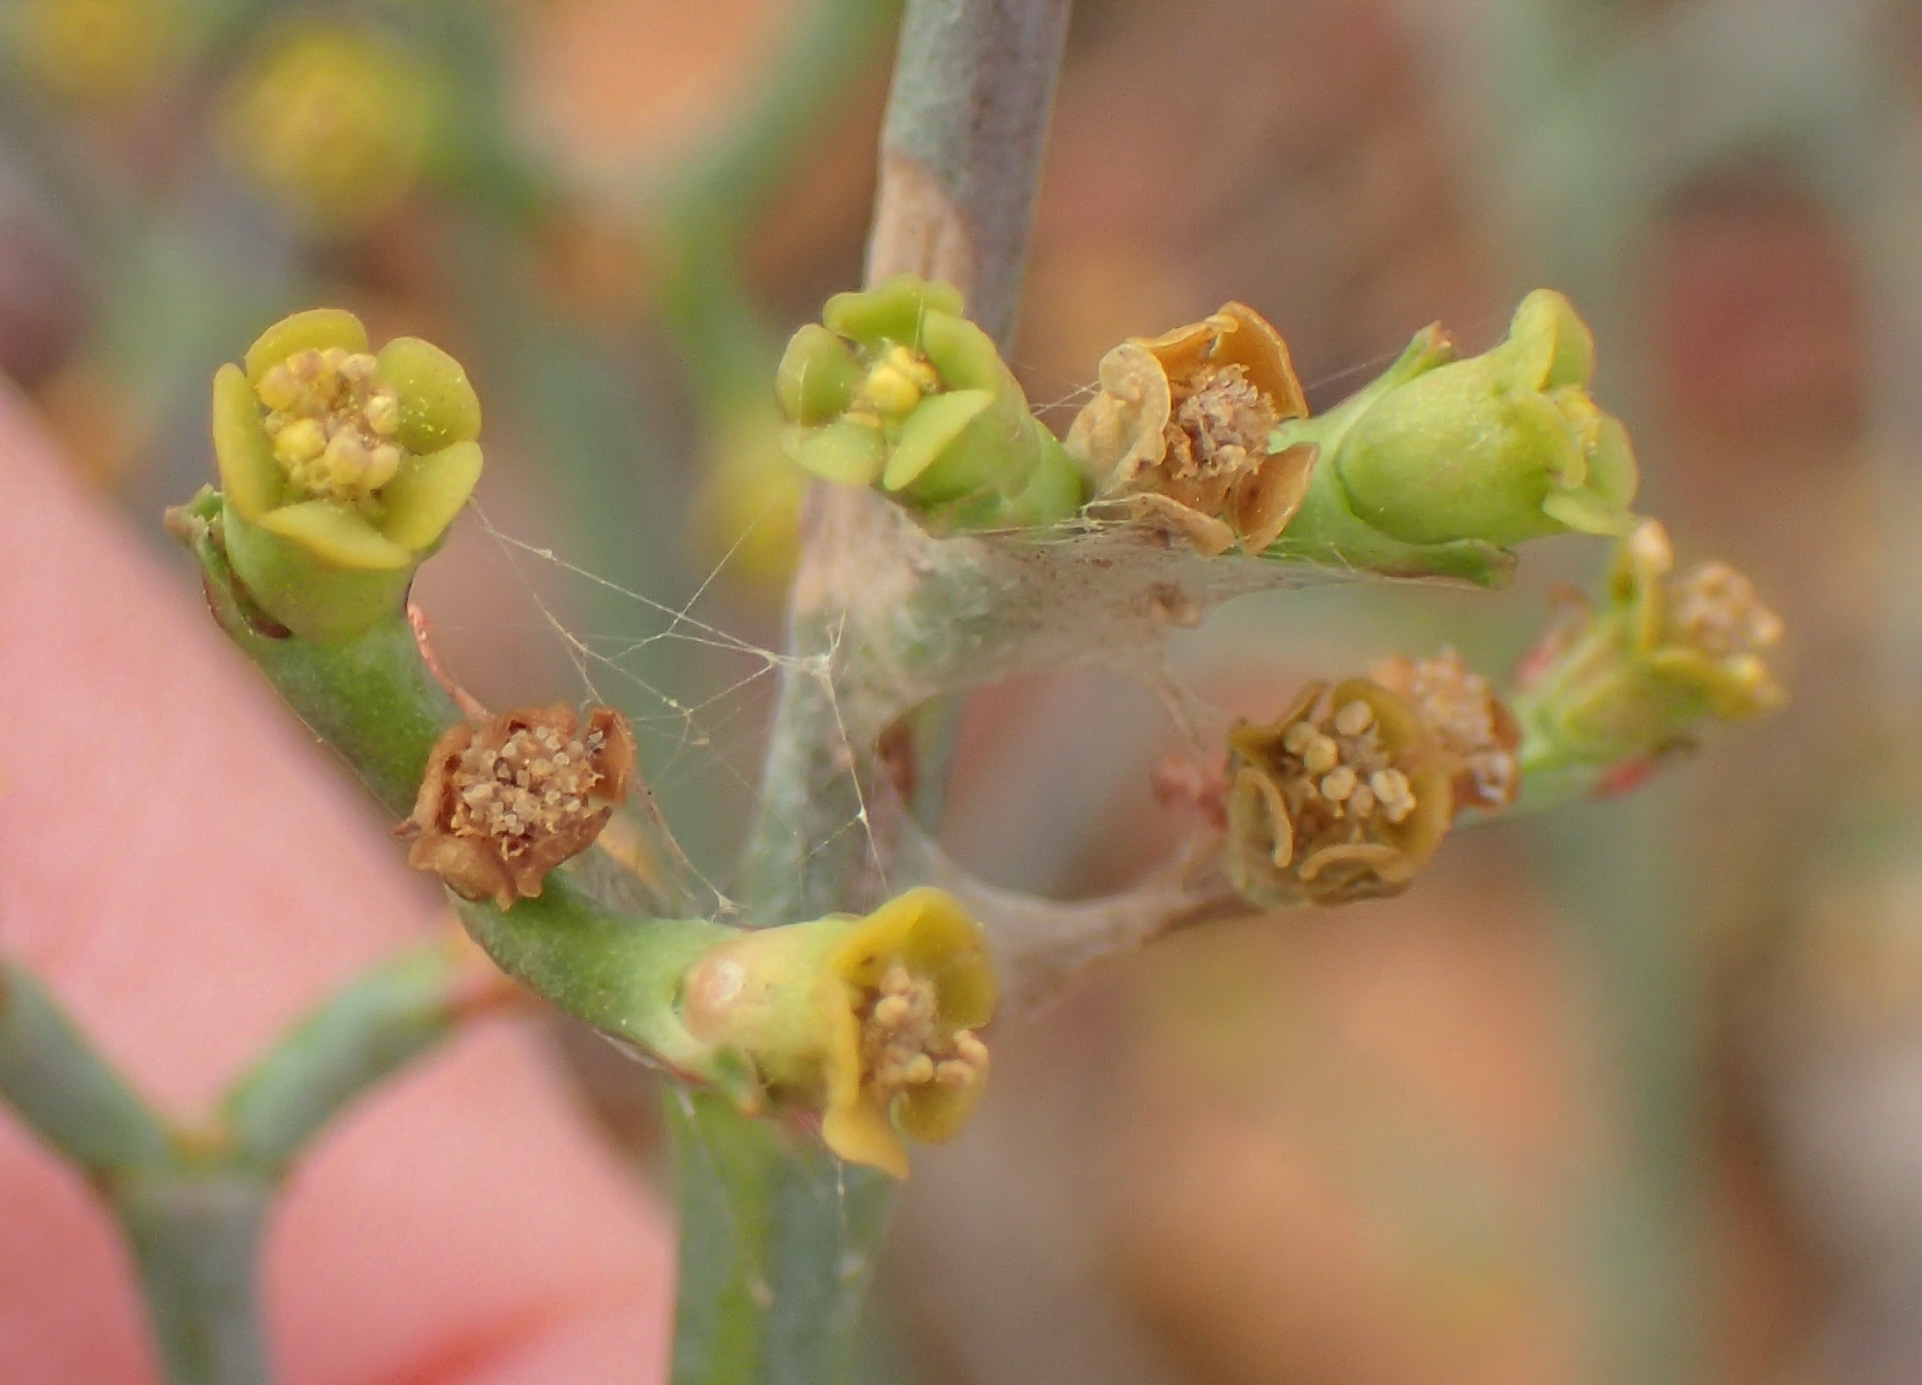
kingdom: Plantae
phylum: Tracheophyta
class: Magnoliopsida
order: Malpighiales
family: Euphorbiaceae
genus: Euphorbia
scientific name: Euphorbia rhombifolia
